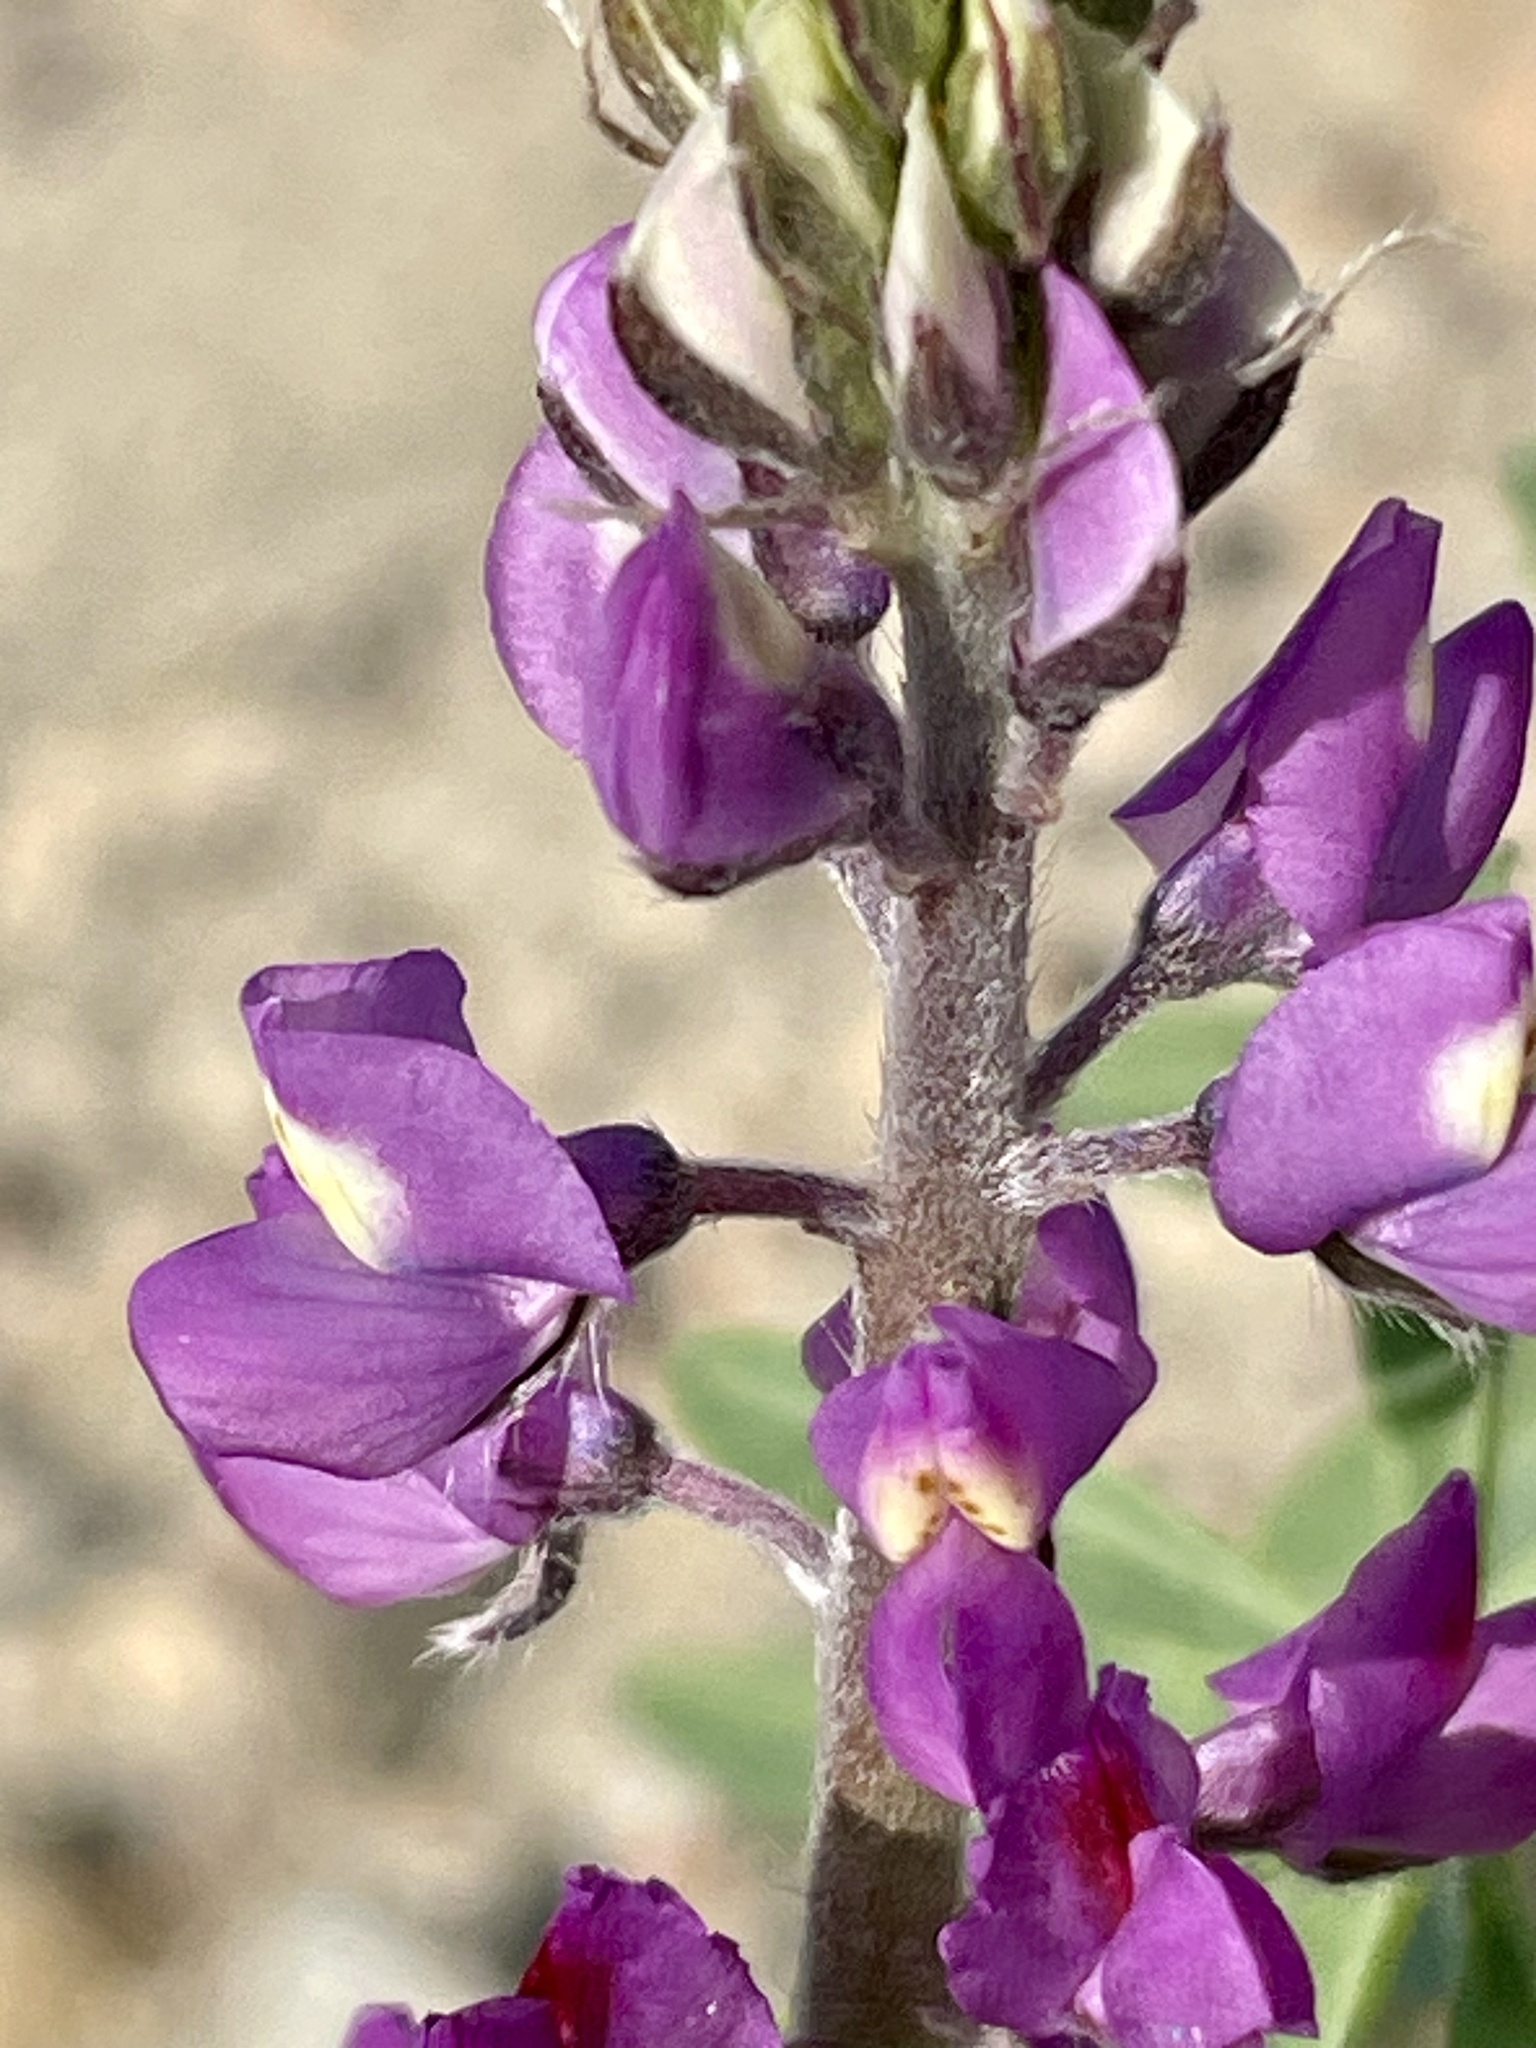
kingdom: Plantae
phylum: Tracheophyta
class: Magnoliopsida
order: Fabales
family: Fabaceae
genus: Lupinus
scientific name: Lupinus arizonicus
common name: Arizona lupine
